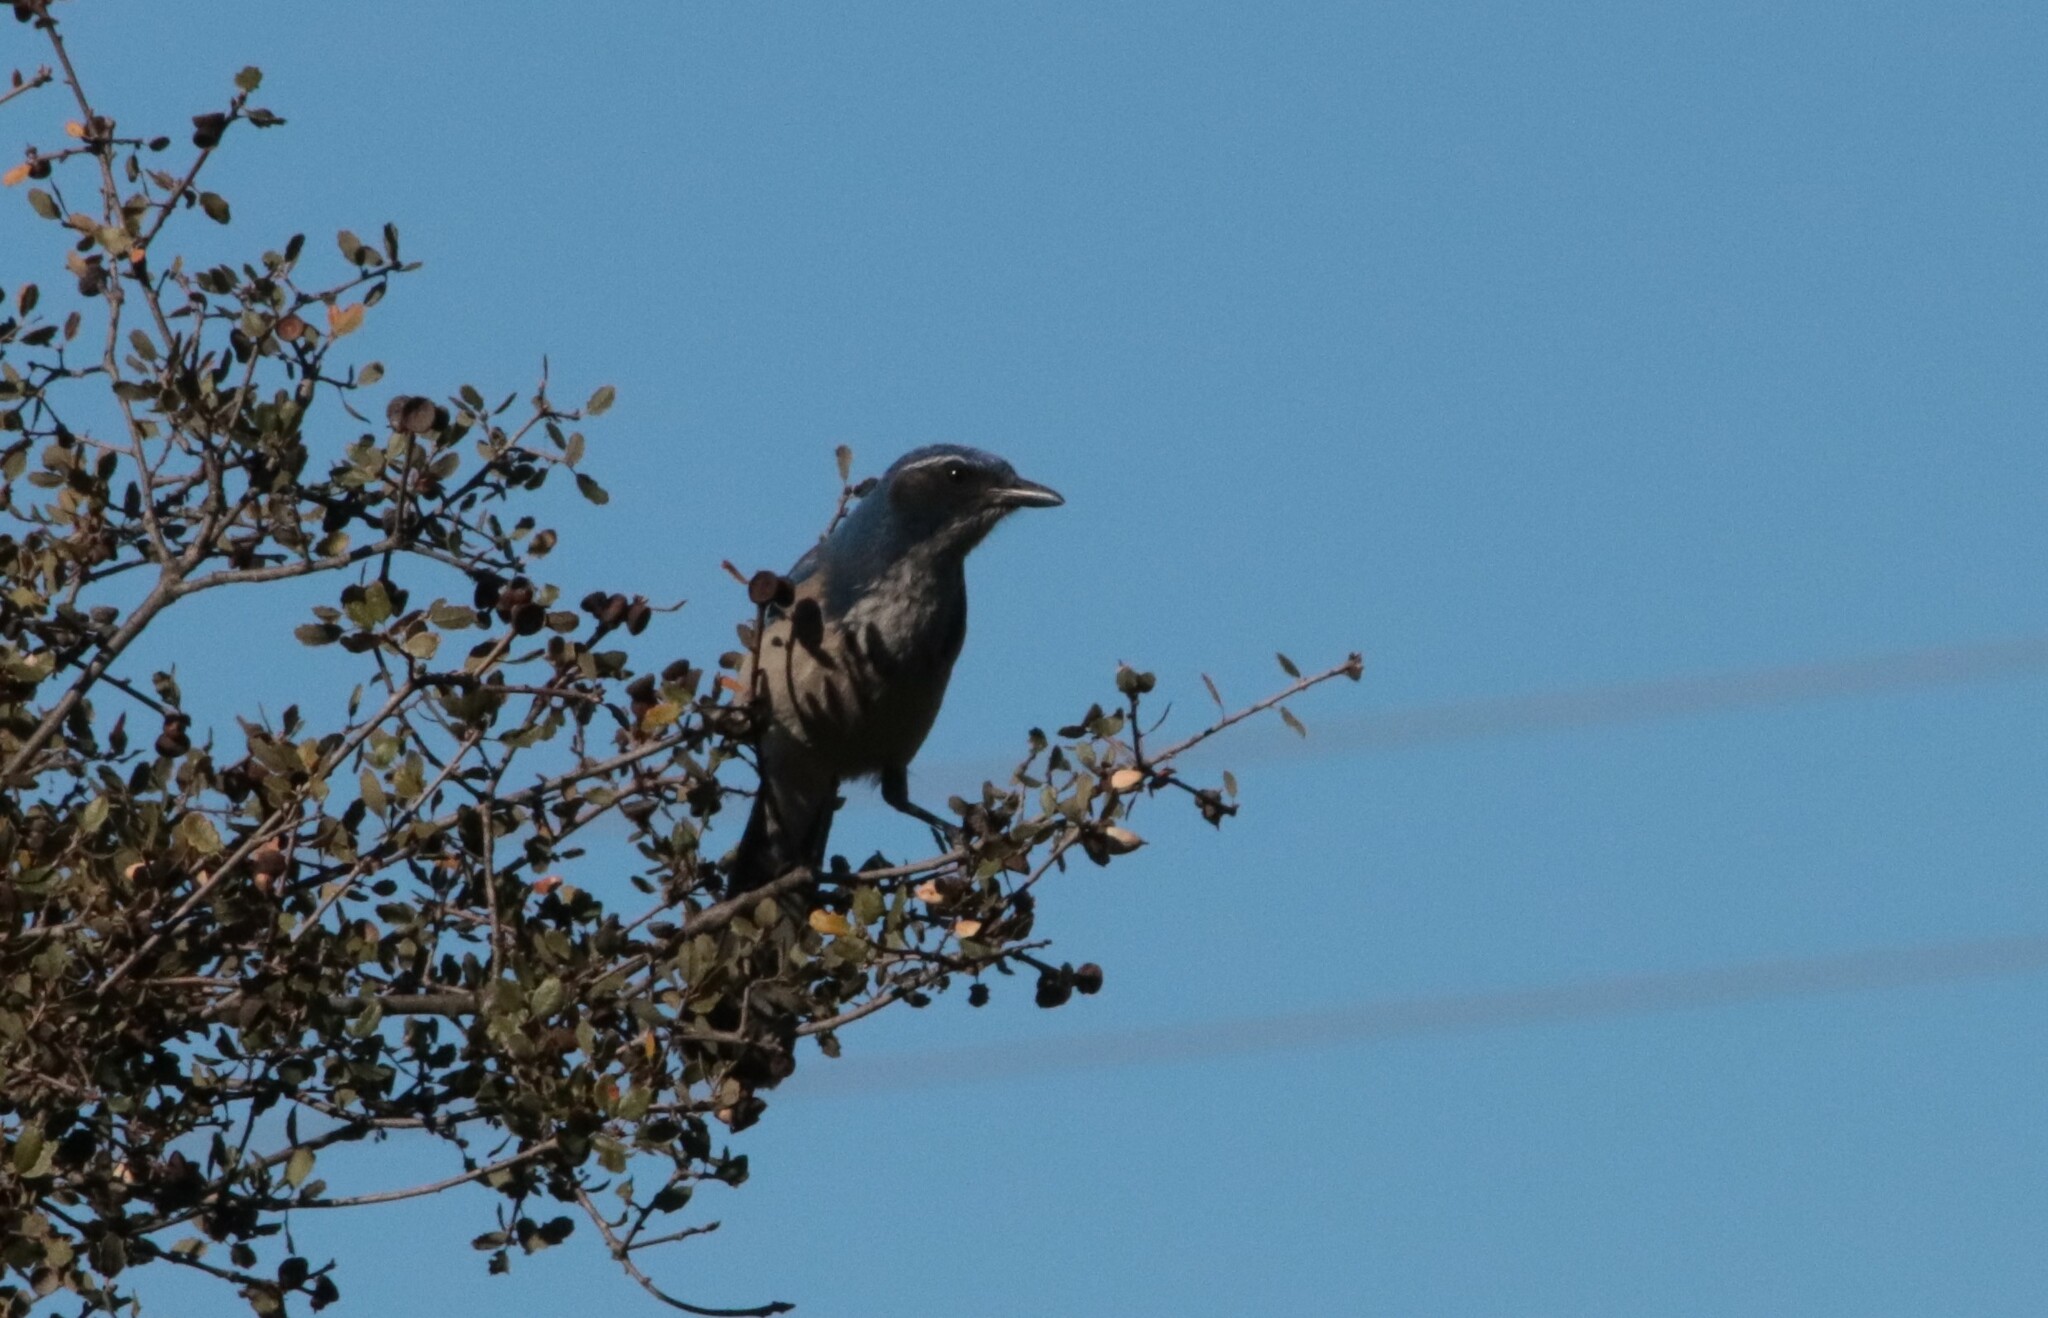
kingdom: Animalia
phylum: Chordata
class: Aves
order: Passeriformes
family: Corvidae
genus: Aphelocoma
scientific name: Aphelocoma californica
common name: California scrub-jay
